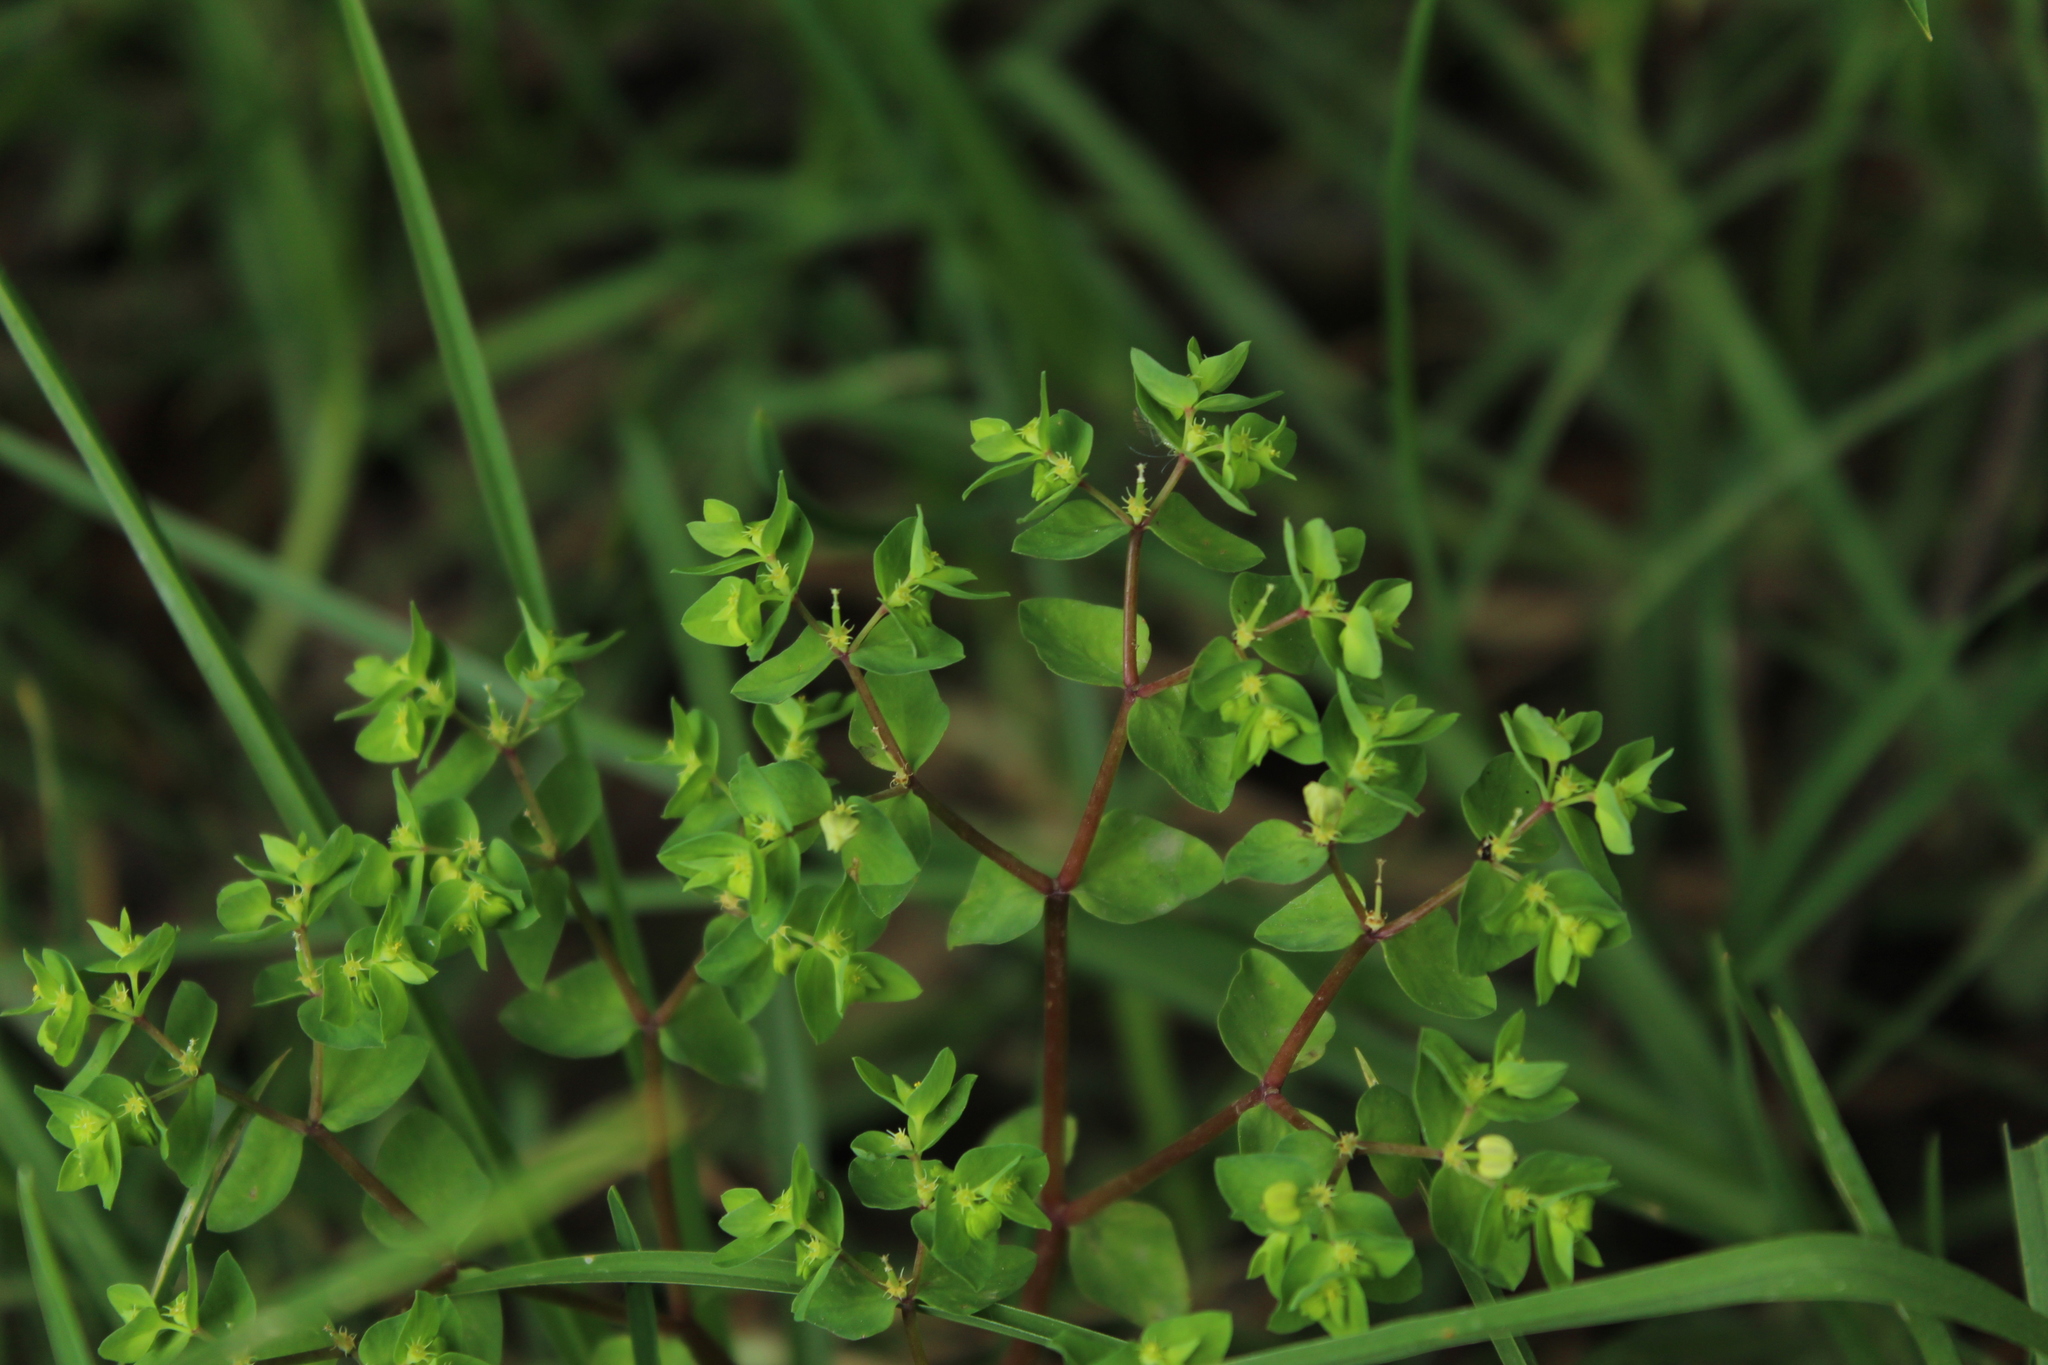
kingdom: Plantae
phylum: Tracheophyta
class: Magnoliopsida
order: Malpighiales
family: Euphorbiaceae
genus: Euphorbia
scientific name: Euphorbia peplus
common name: Petty spurge
